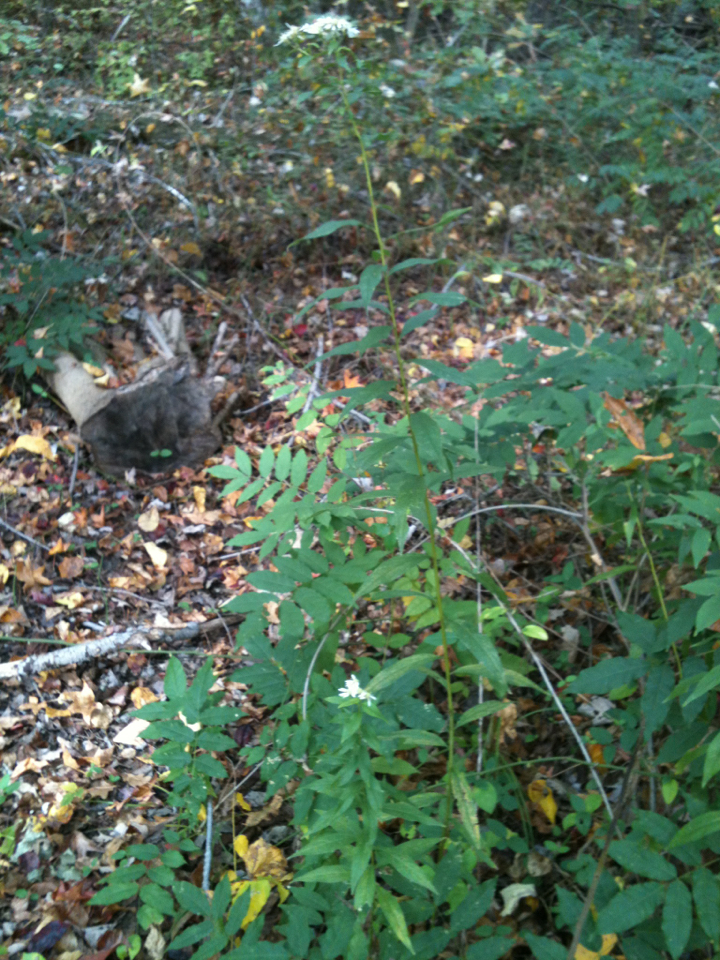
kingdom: Plantae
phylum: Tracheophyta
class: Magnoliopsida
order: Asterales
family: Asteraceae
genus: Doellingeria
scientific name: Doellingeria umbellata
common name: Flat-top white aster
